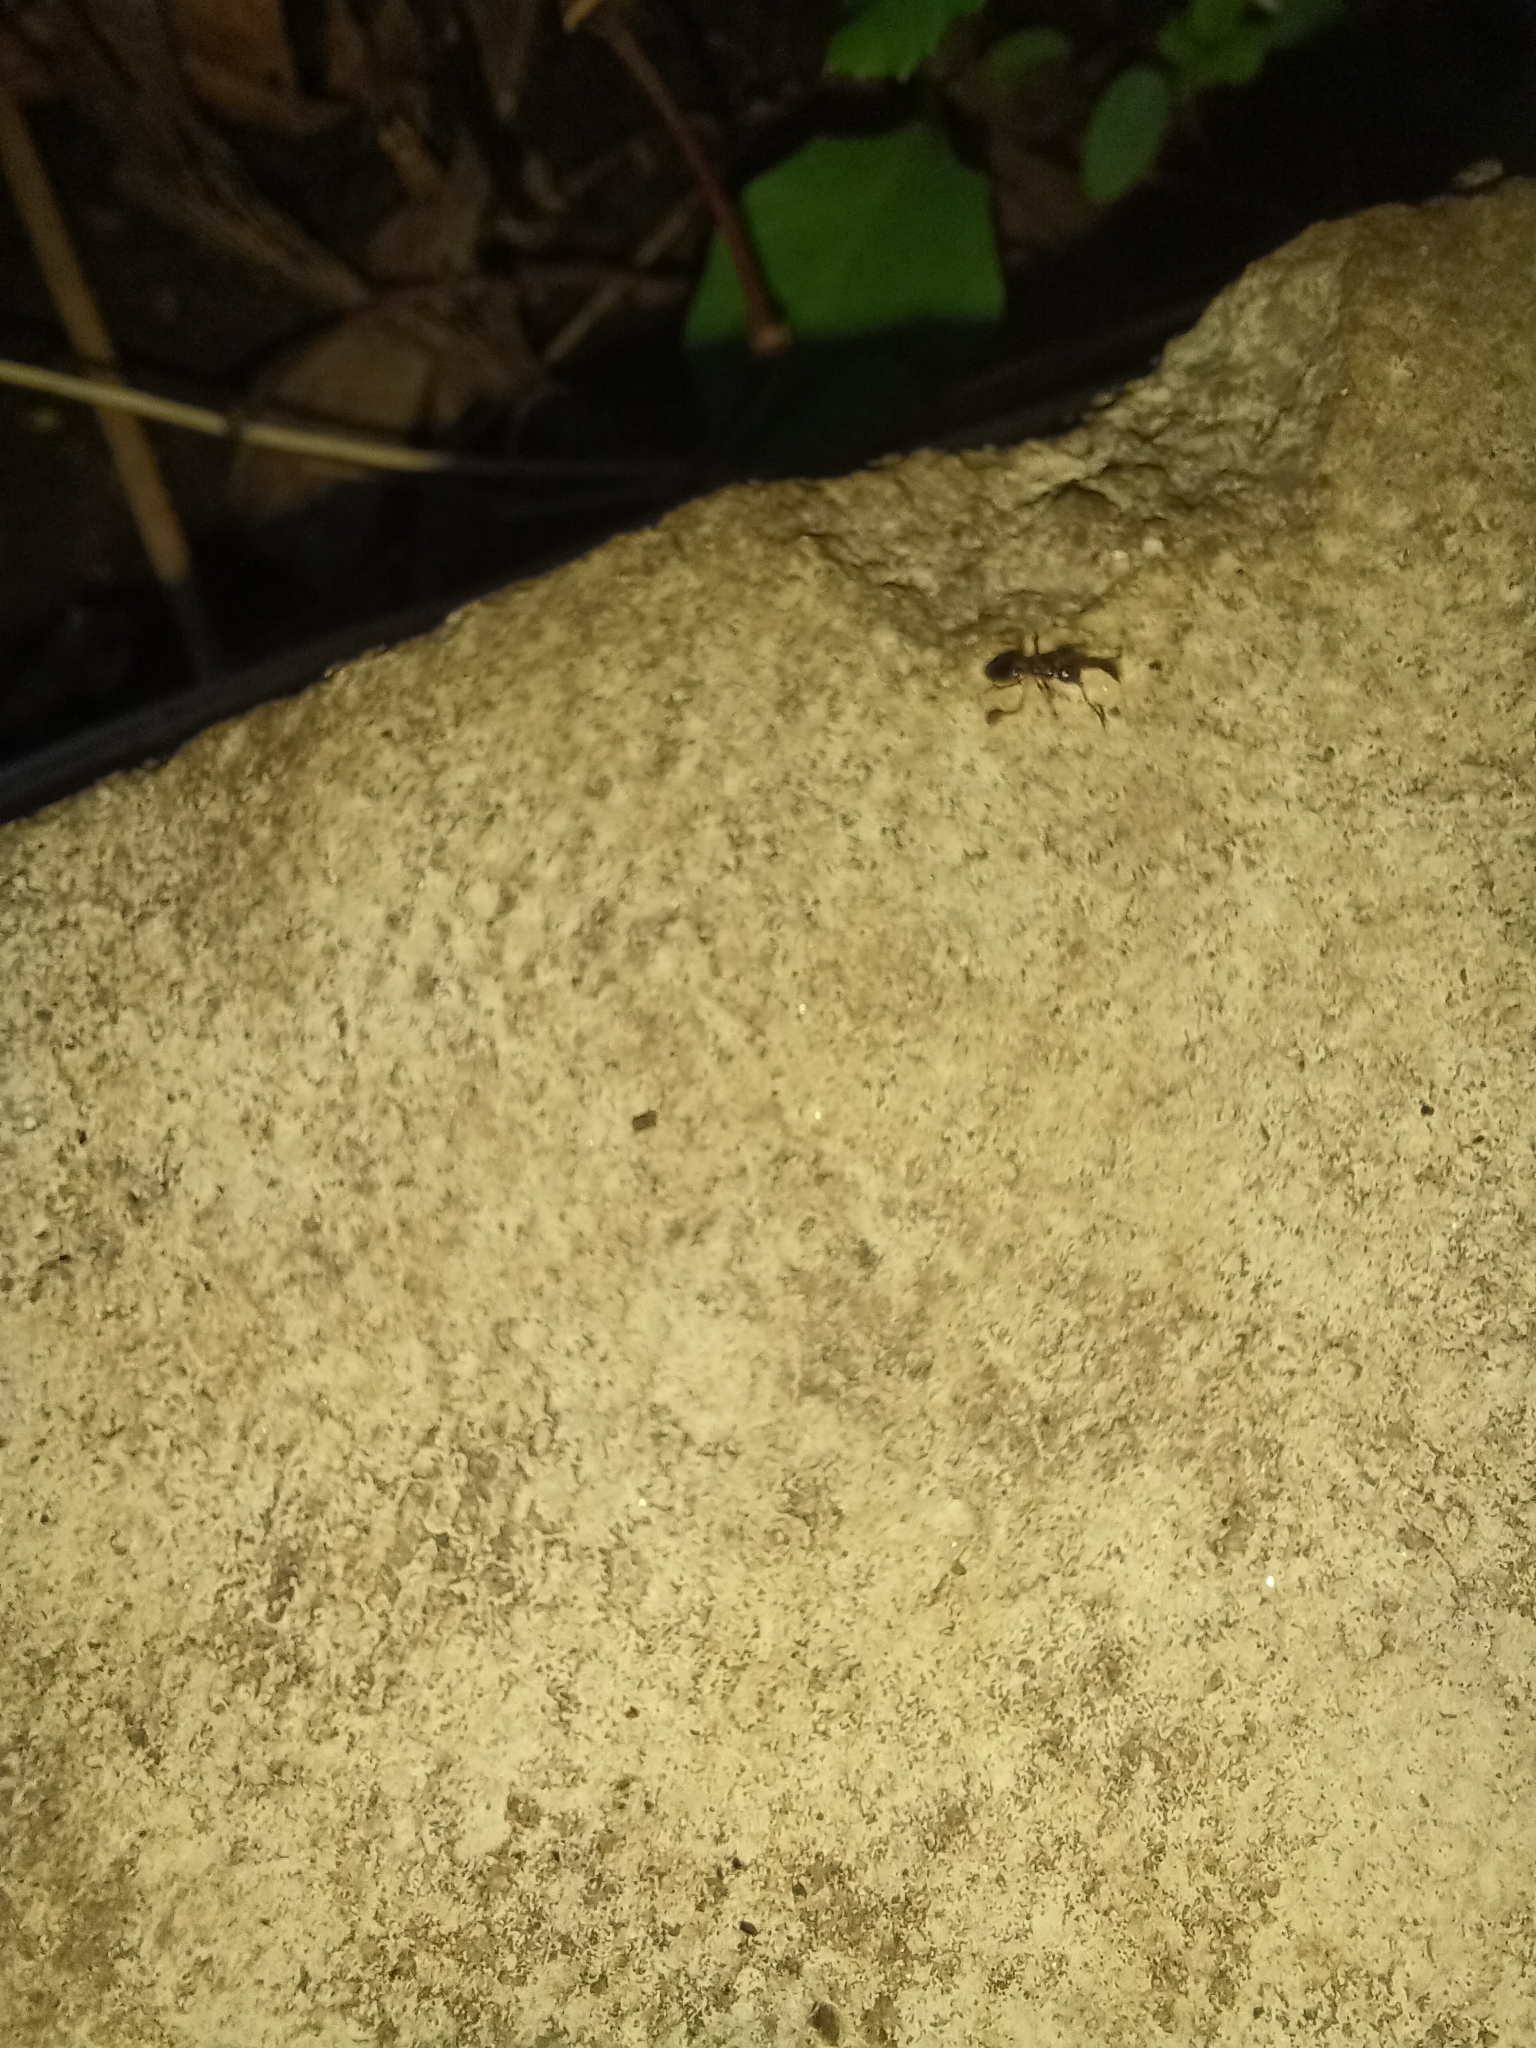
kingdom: Animalia
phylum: Arthropoda
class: Insecta
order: Hymenoptera
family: Formicidae
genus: Tapinoma
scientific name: Tapinoma sessile
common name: Odorous house ant
